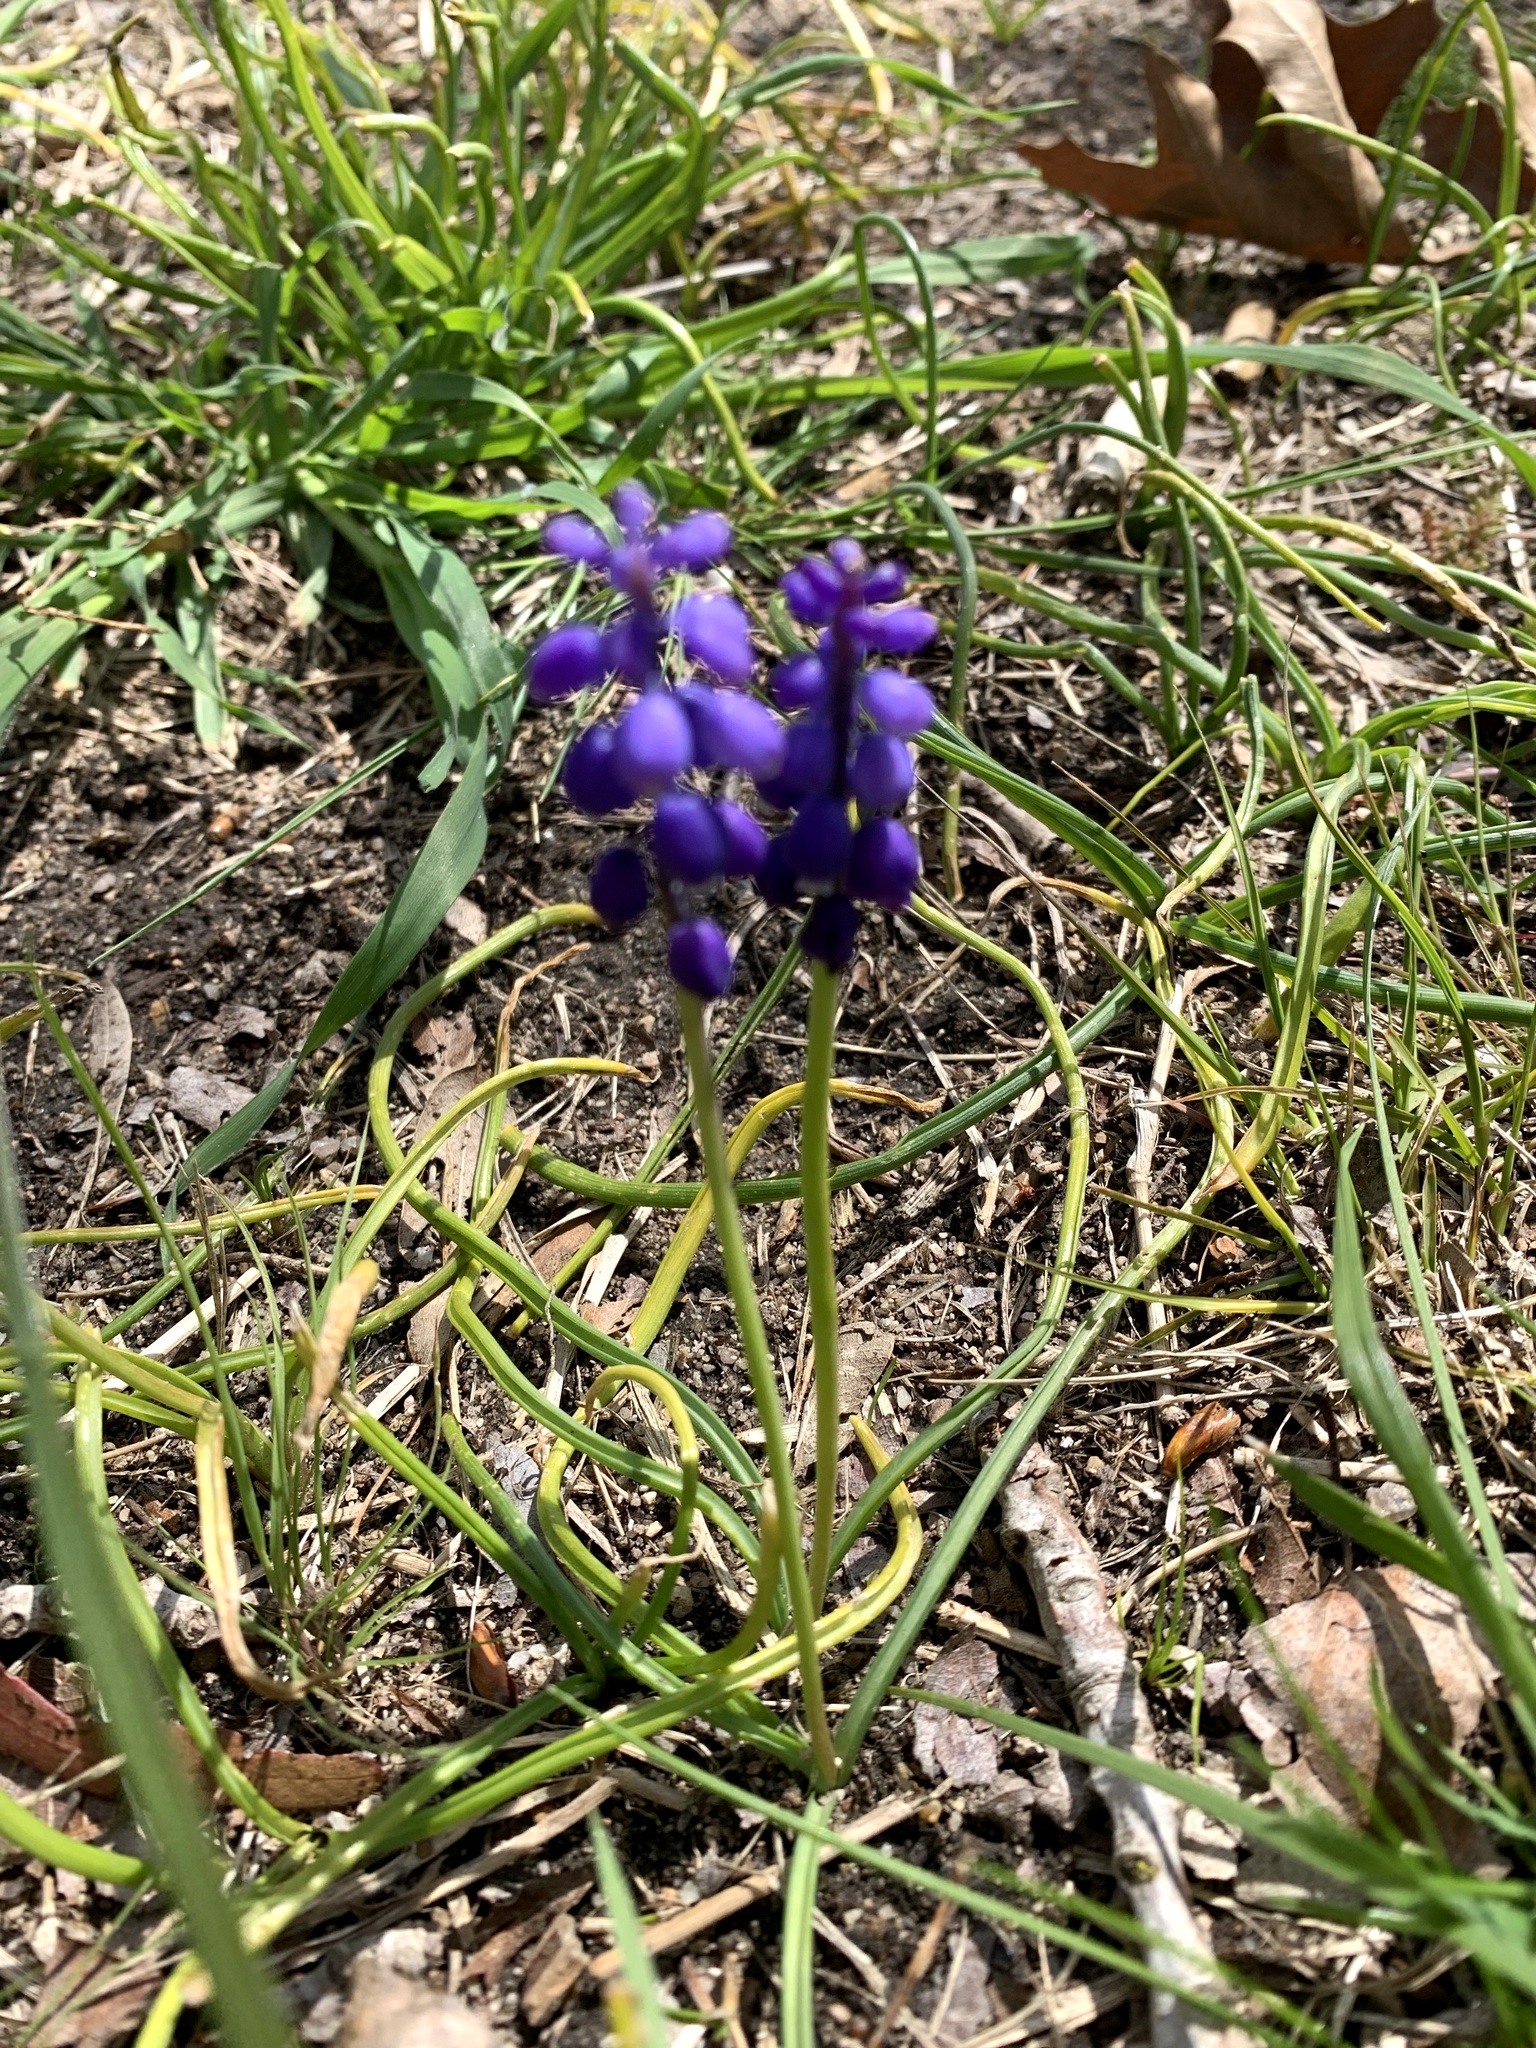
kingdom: Plantae
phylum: Tracheophyta
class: Liliopsida
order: Asparagales
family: Asparagaceae
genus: Muscari
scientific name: Muscari armeniacum
